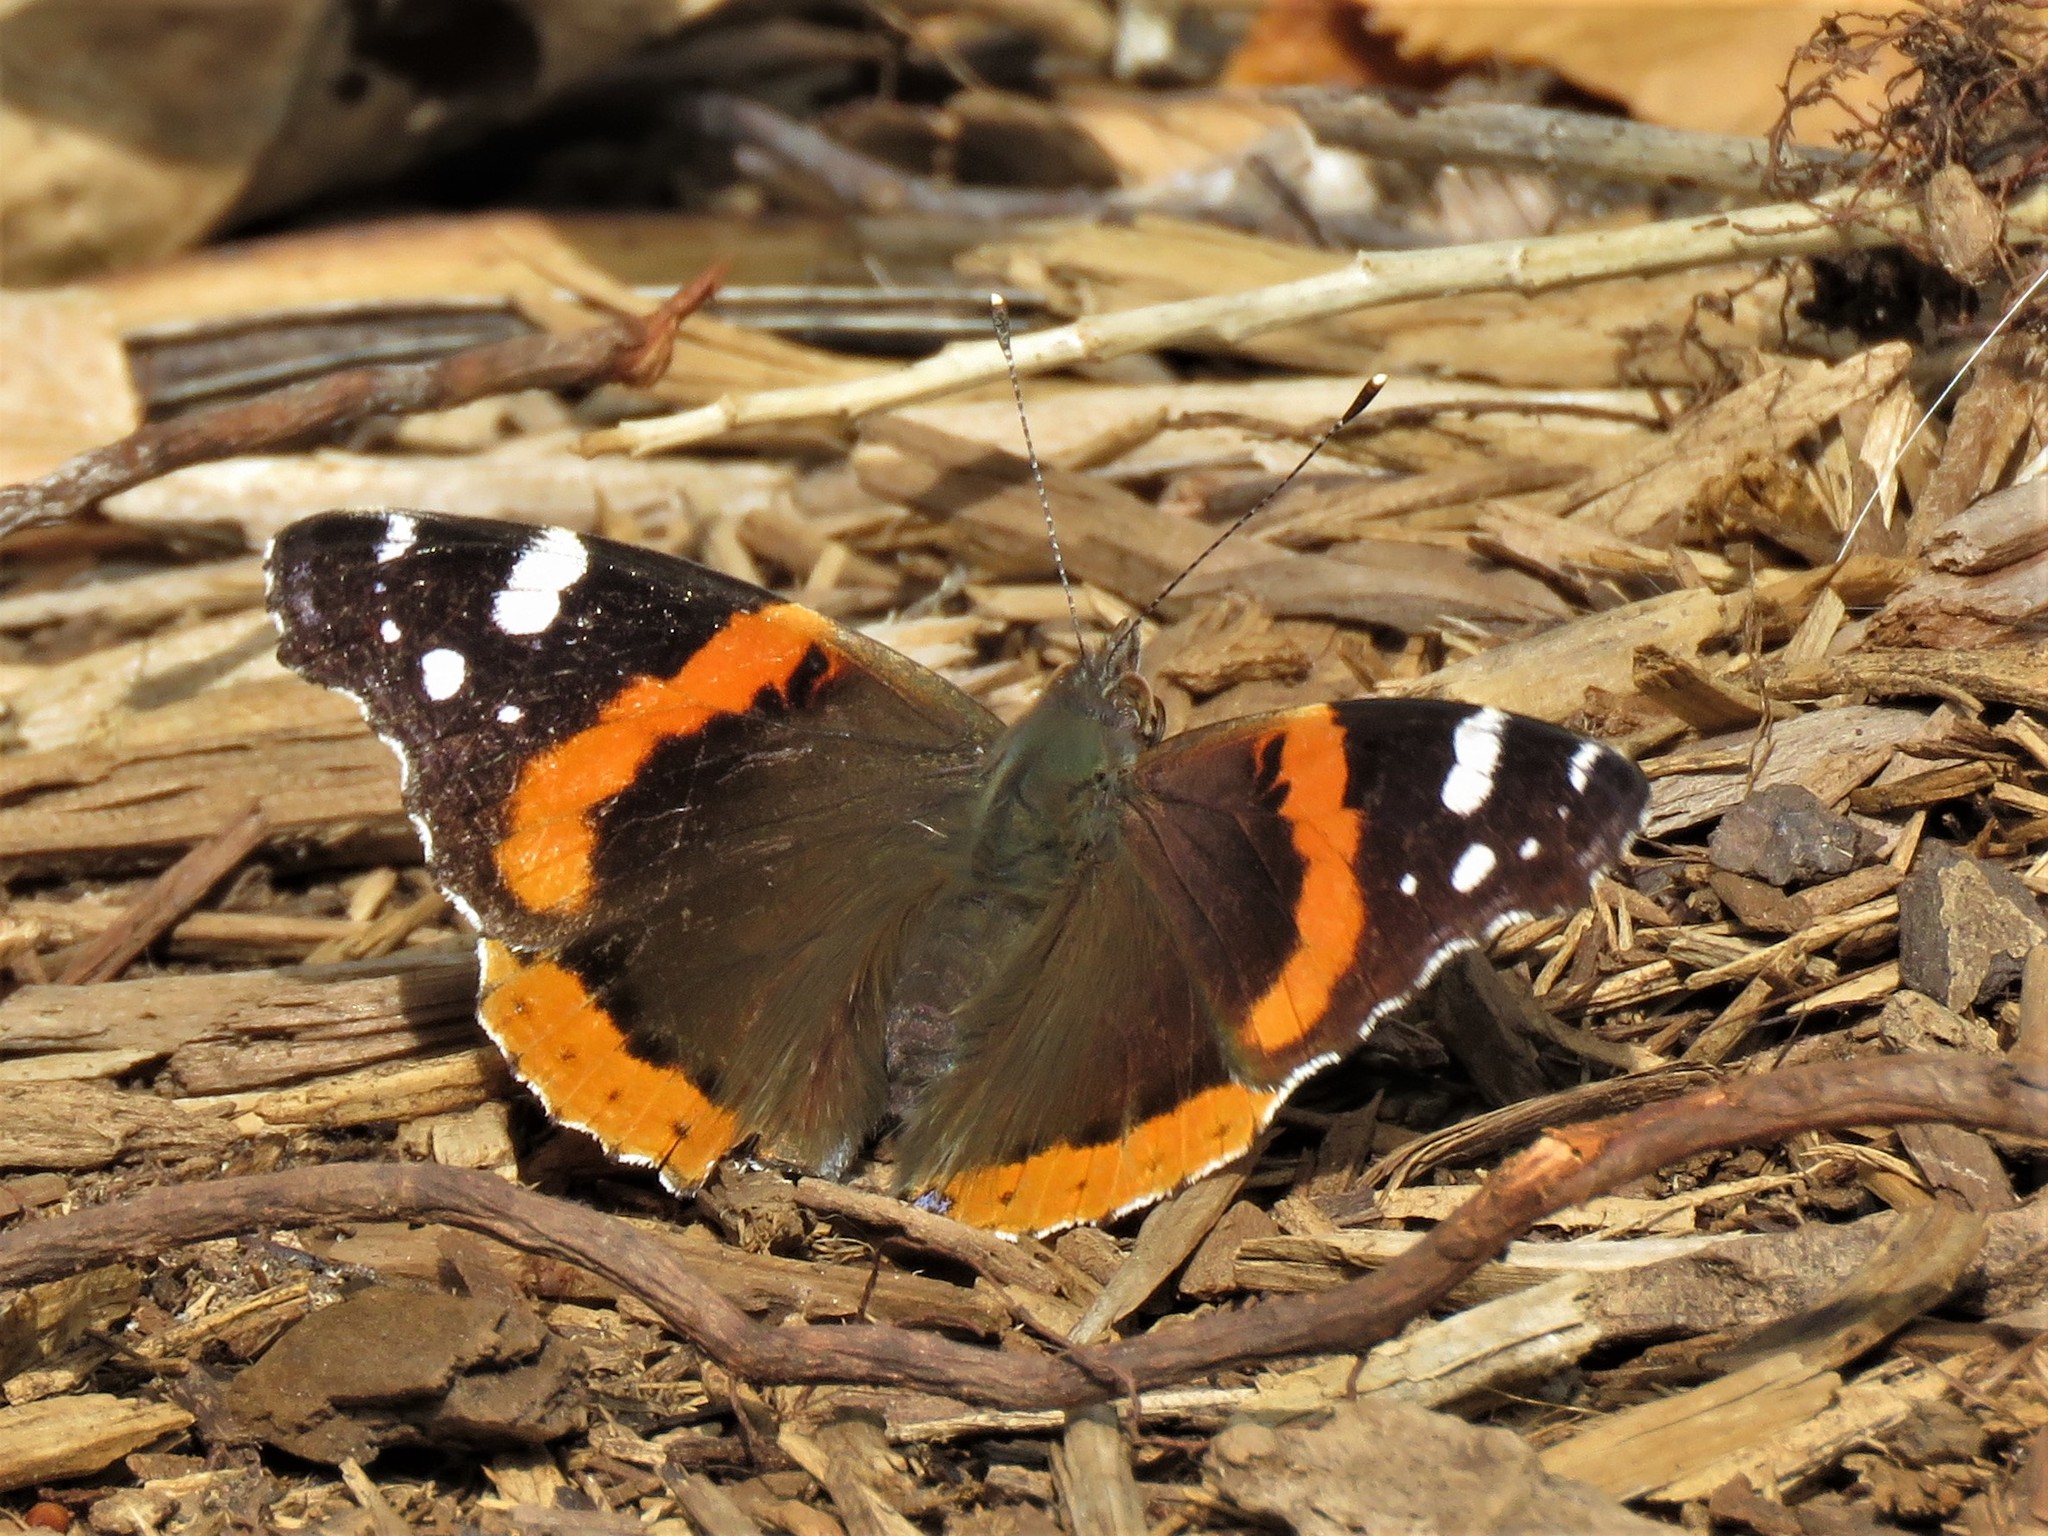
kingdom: Animalia
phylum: Arthropoda
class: Insecta
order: Lepidoptera
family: Nymphalidae
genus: Vanessa
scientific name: Vanessa atalanta
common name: Red admiral
